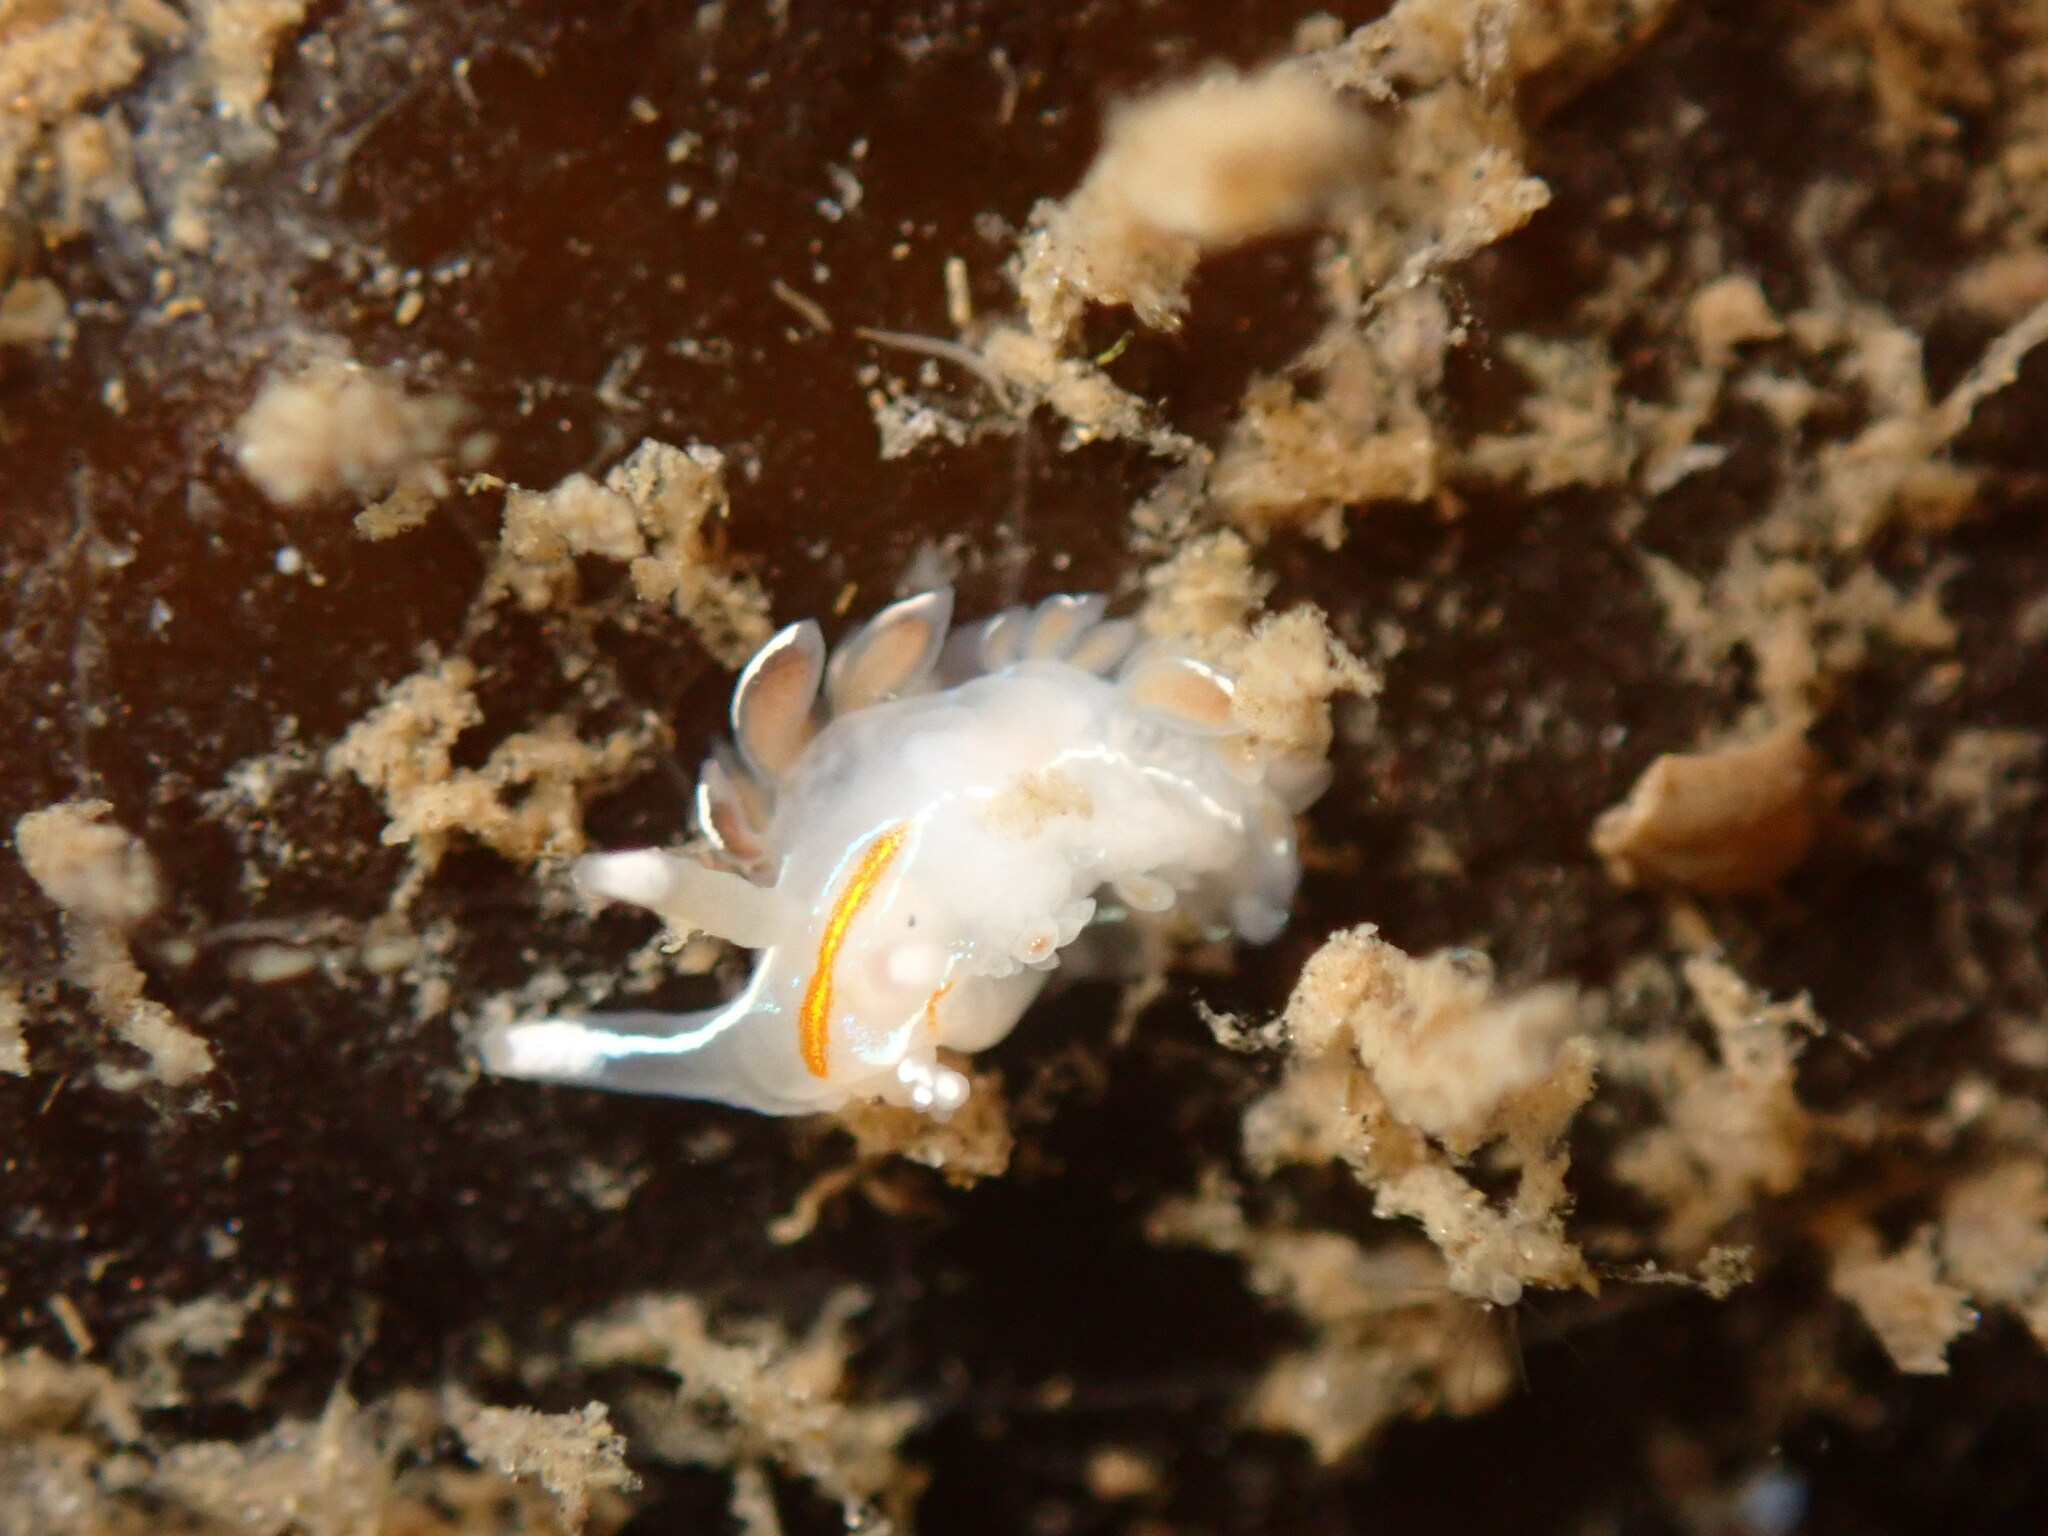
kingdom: Animalia
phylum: Mollusca
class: Gastropoda
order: Nudibranchia
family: Myrrhinidae
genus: Hermissenda
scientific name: Hermissenda crassicornis
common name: Hermissenda
